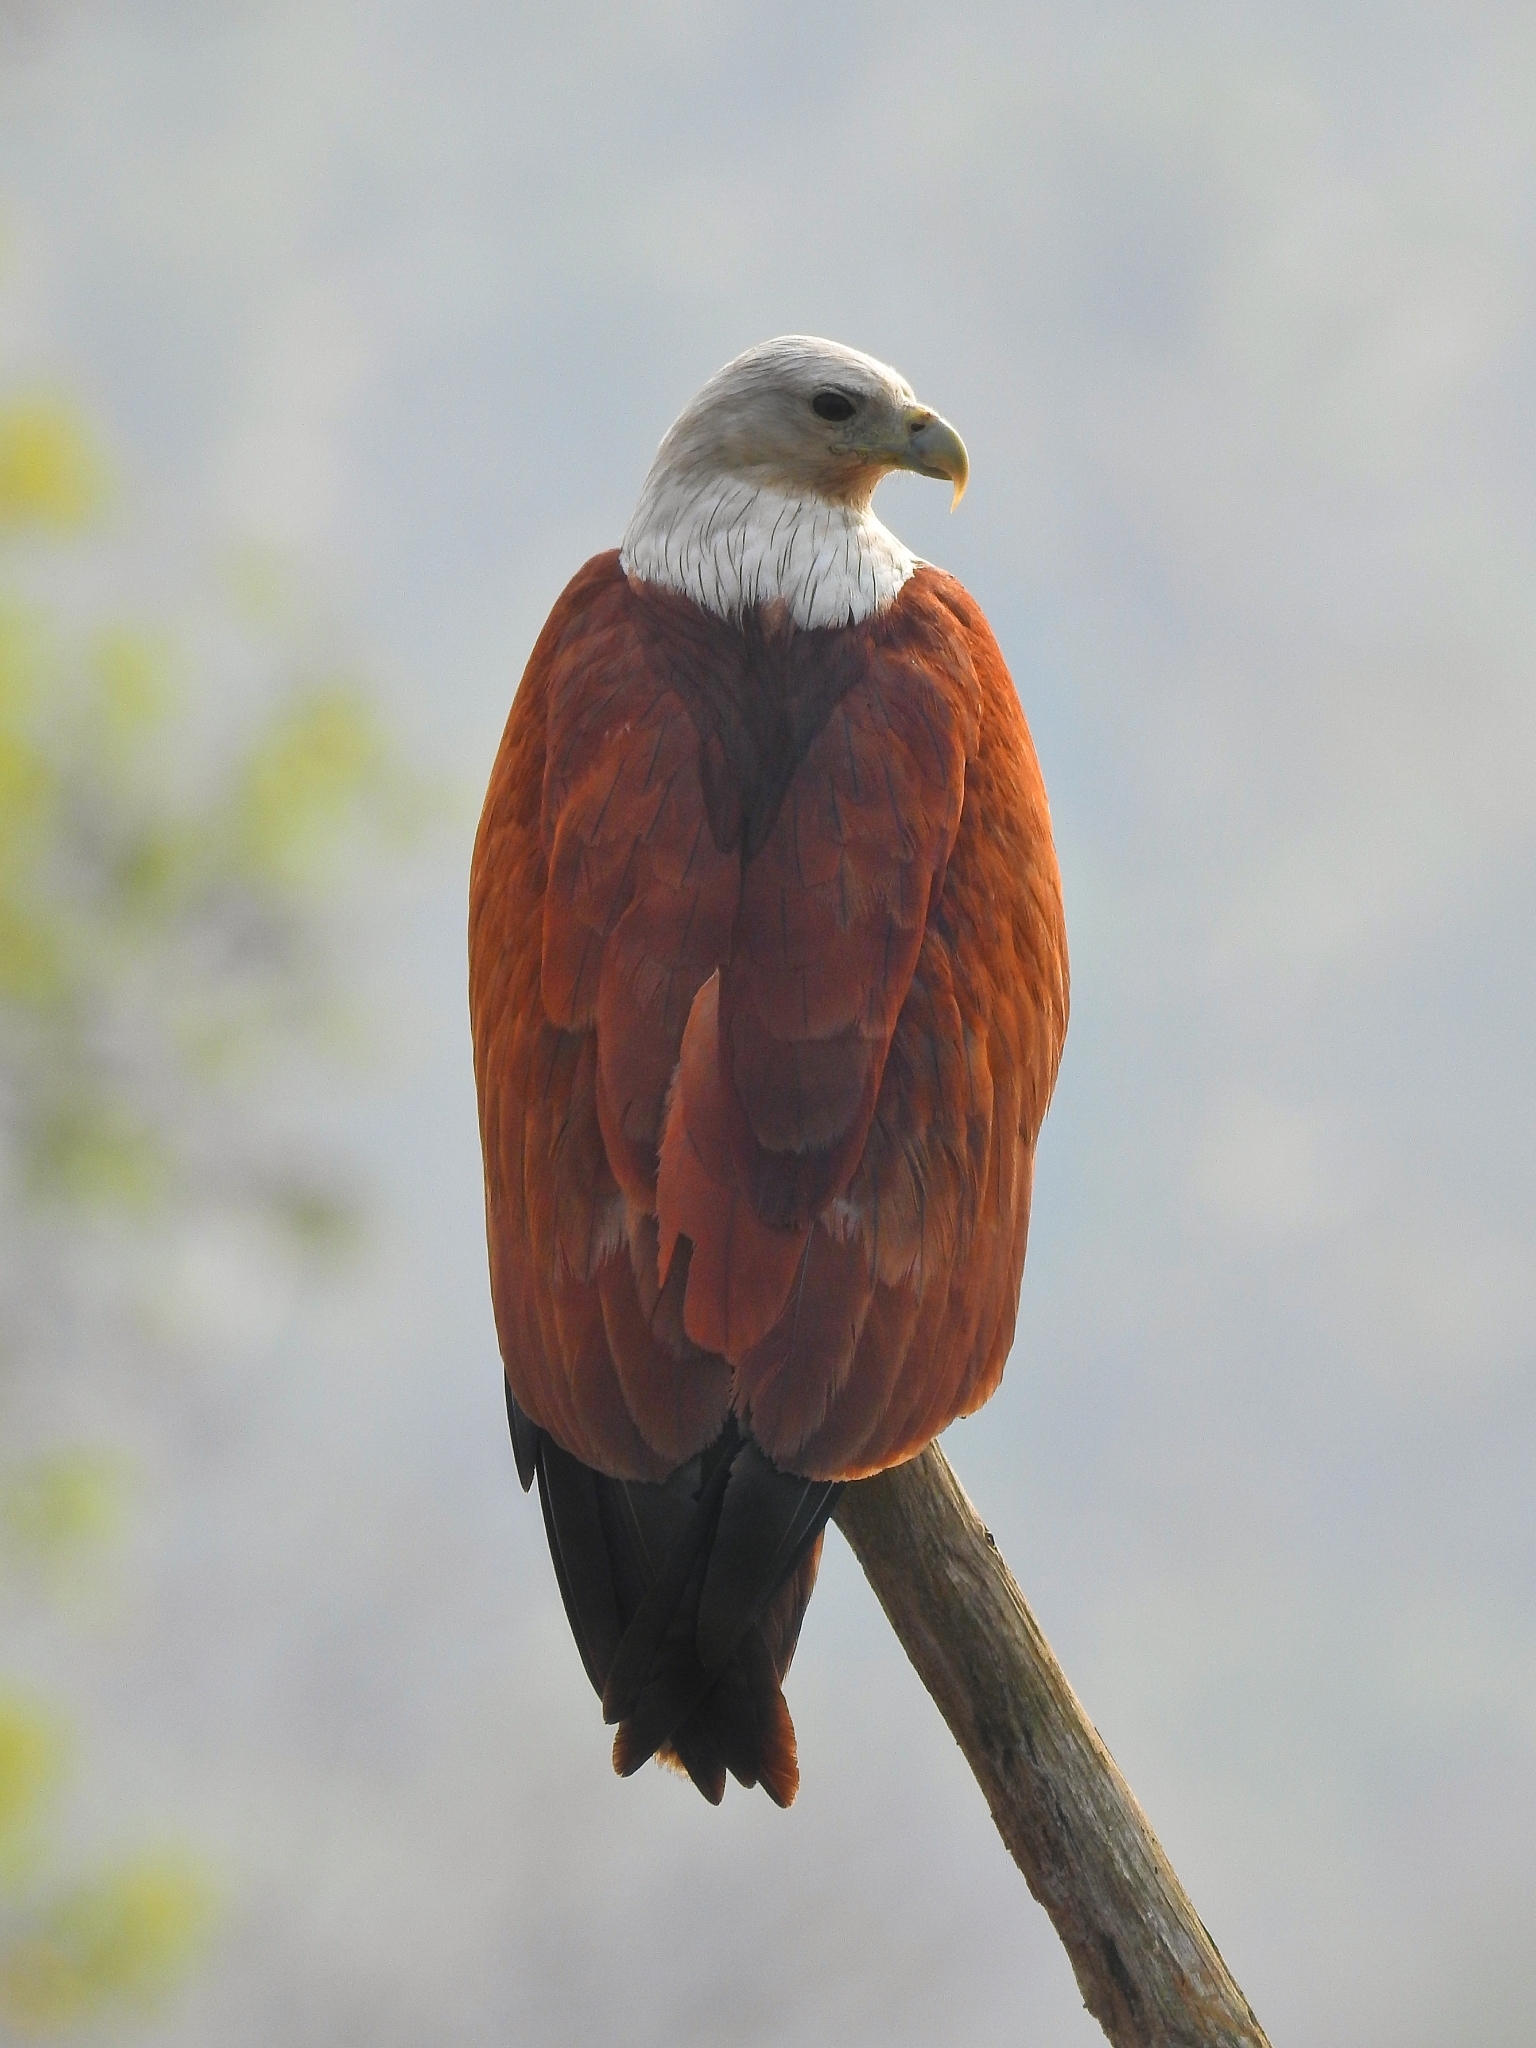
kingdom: Animalia
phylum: Chordata
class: Aves
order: Accipitriformes
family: Accipitridae
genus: Haliastur
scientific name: Haliastur indus
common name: Brahminy kite
